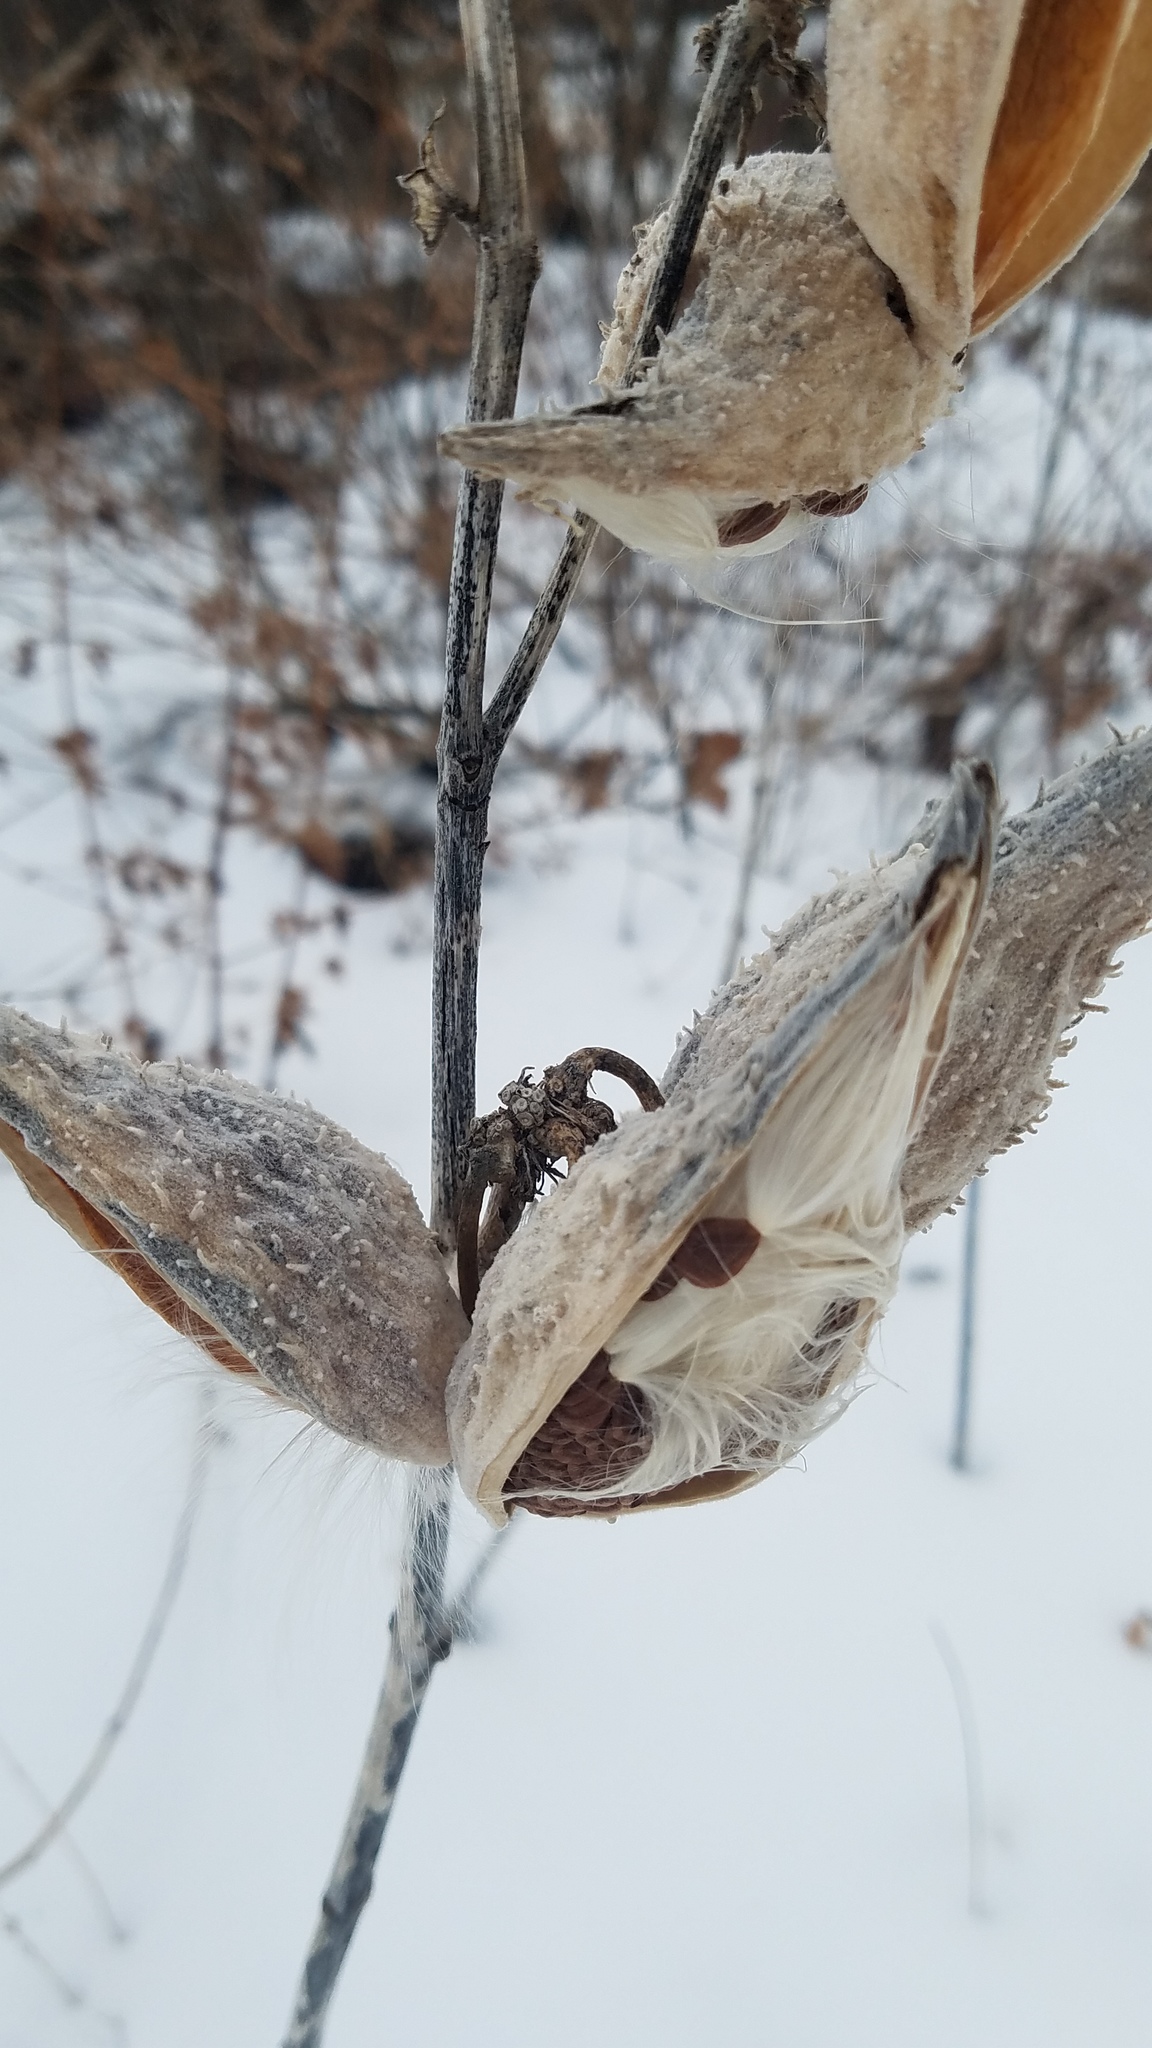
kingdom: Plantae
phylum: Tracheophyta
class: Magnoliopsida
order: Gentianales
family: Apocynaceae
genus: Asclepias
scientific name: Asclepias syriaca
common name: Common milkweed
